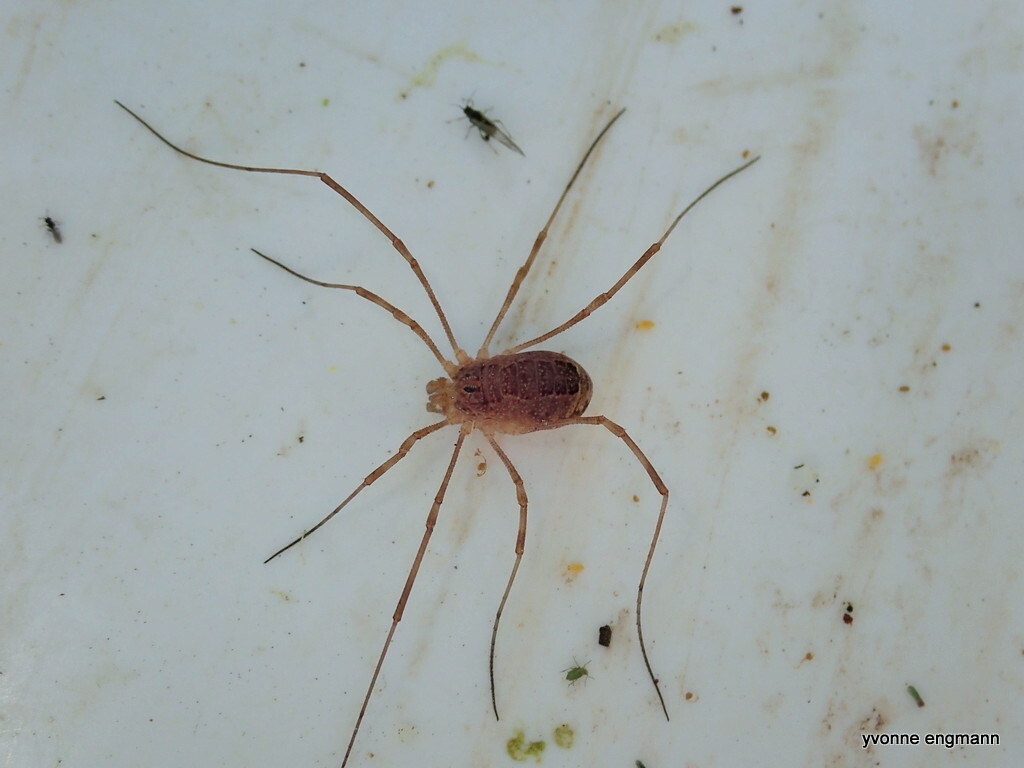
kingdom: Animalia
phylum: Arthropoda
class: Arachnida
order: Opiliones
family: Phalangiidae
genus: Rilaena
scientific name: Rilaena triangularis
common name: Spring harvestman
